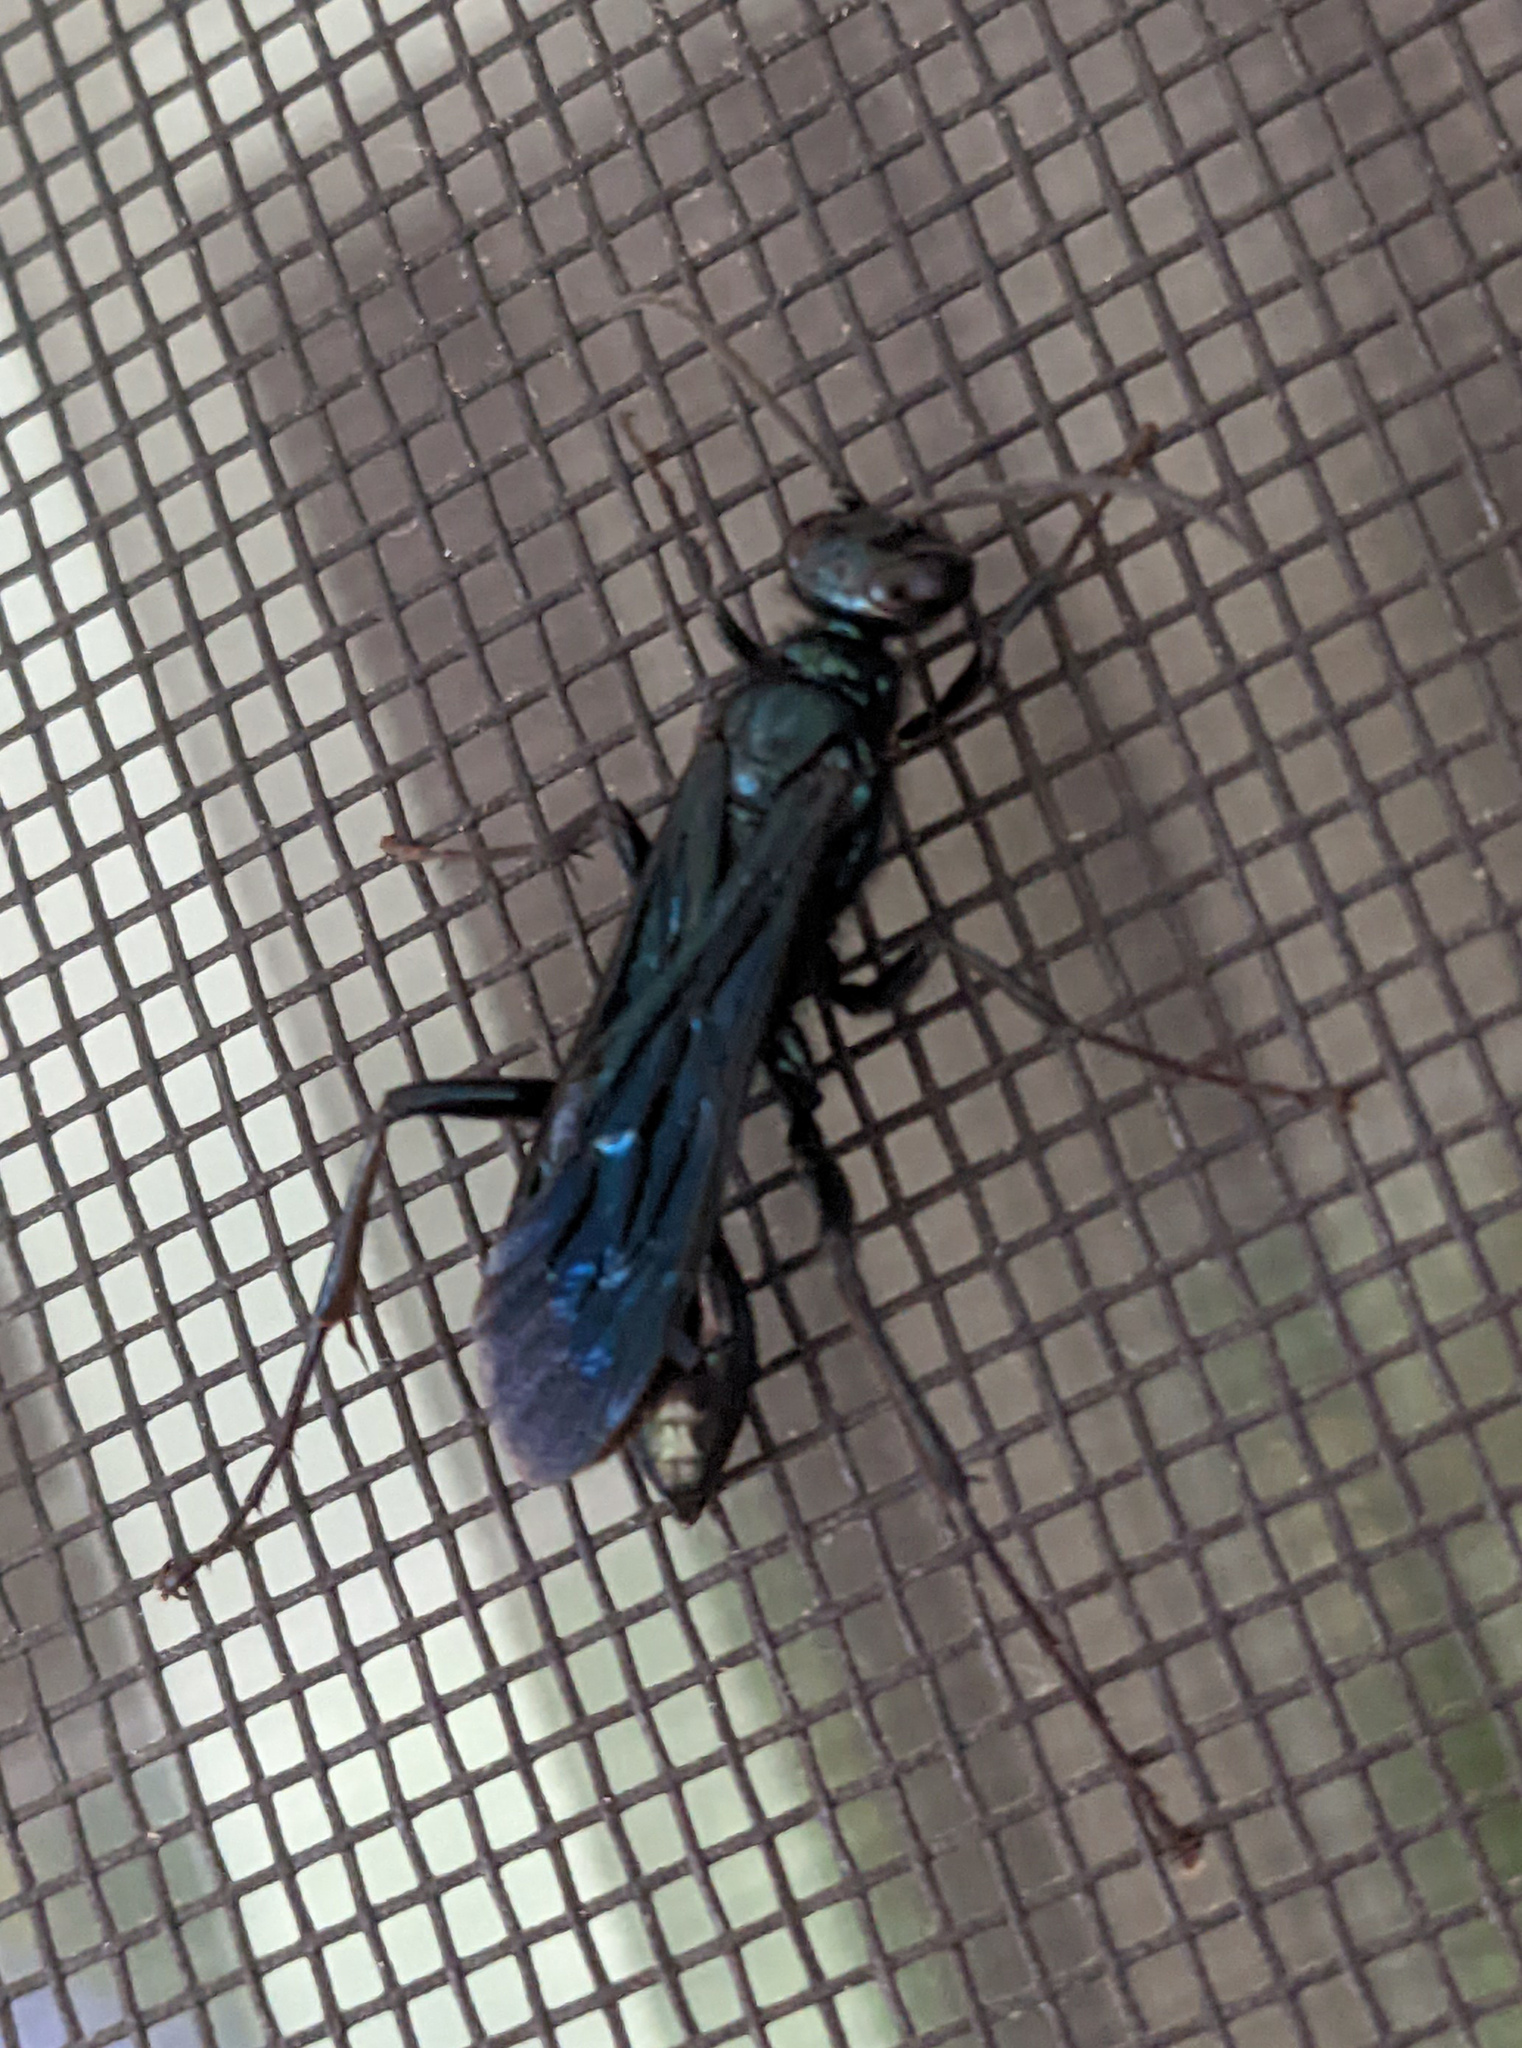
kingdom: Animalia
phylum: Arthropoda
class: Insecta
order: Hymenoptera
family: Sphecidae
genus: Chalybion
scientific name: Chalybion californicum
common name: Mud dauber
